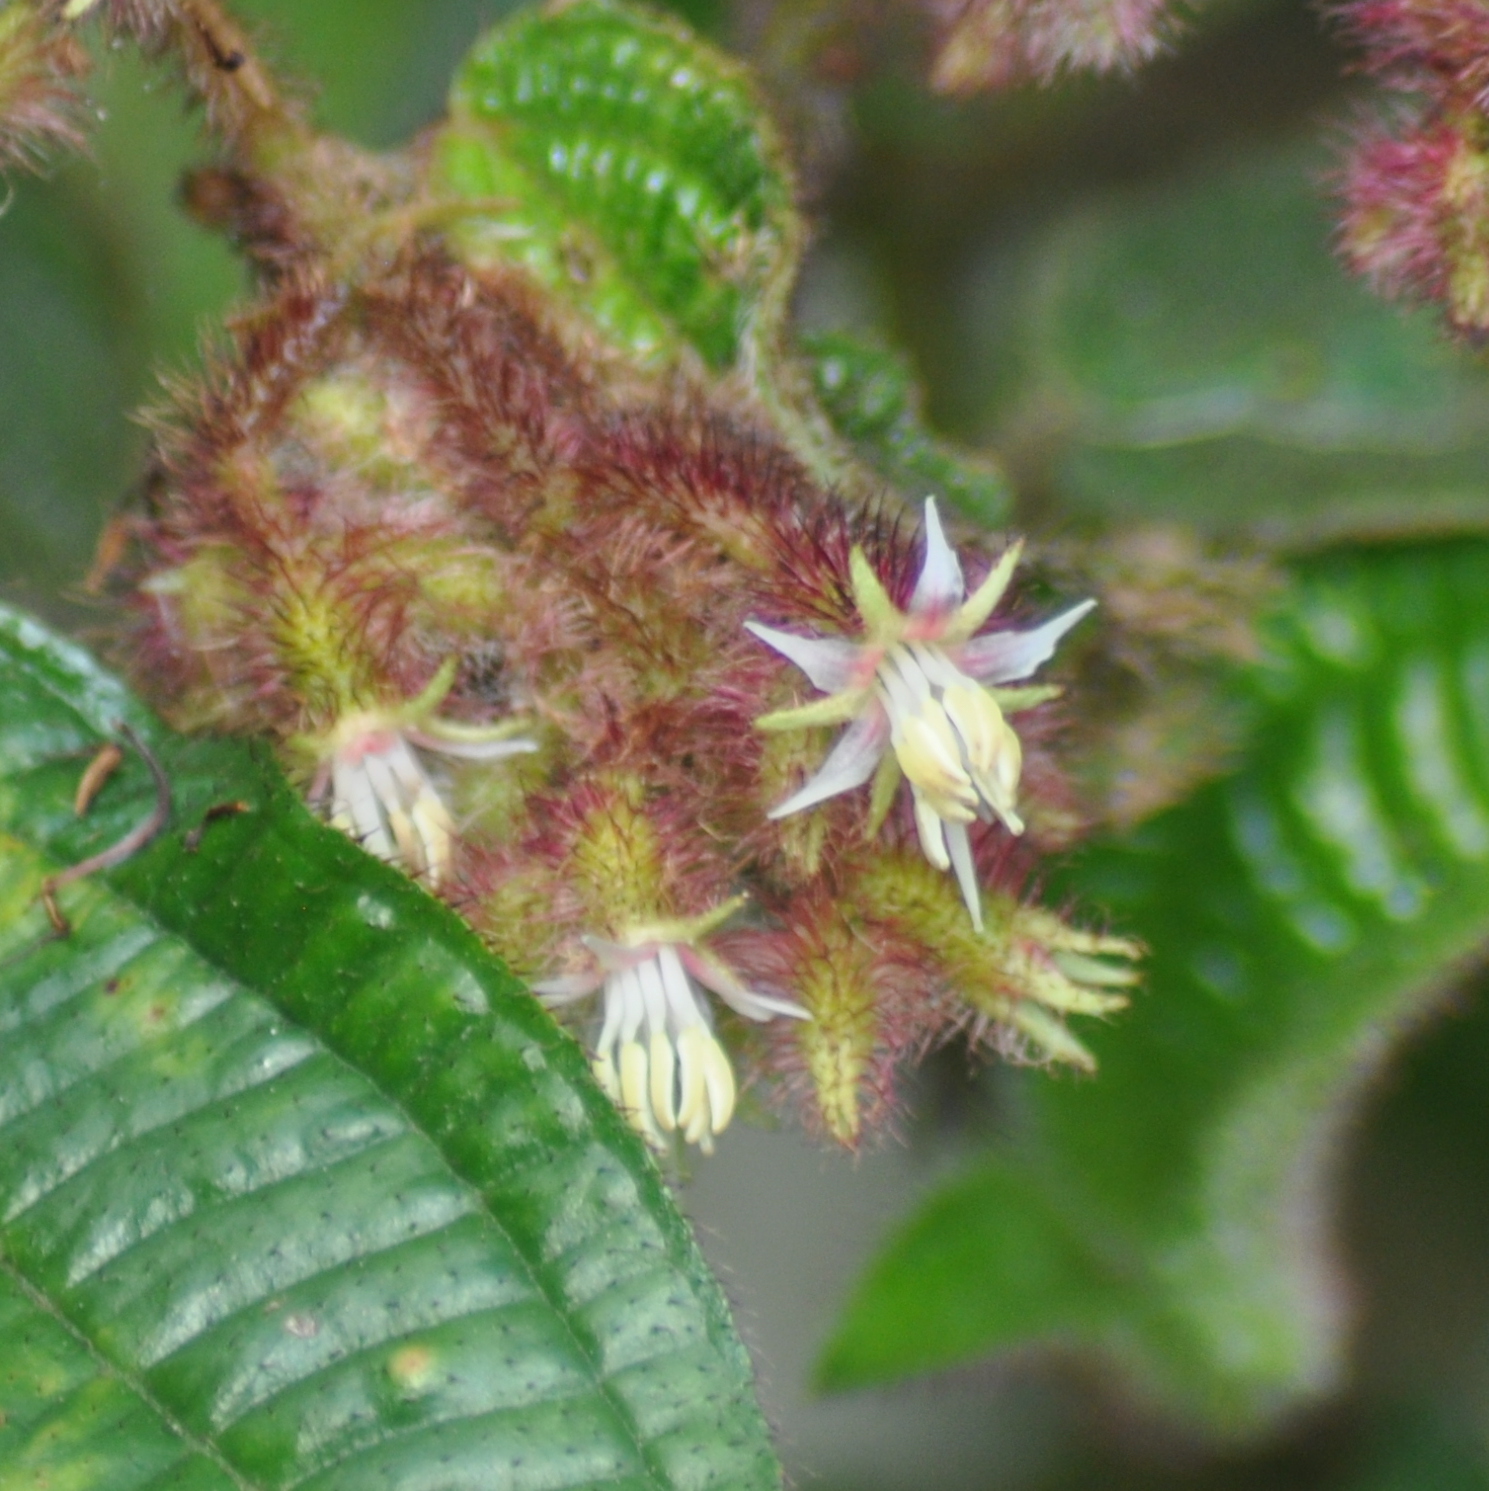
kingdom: Plantae
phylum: Tracheophyta
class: Magnoliopsida
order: Myrtales
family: Melastomataceae
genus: Miconia
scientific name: Miconia australis
